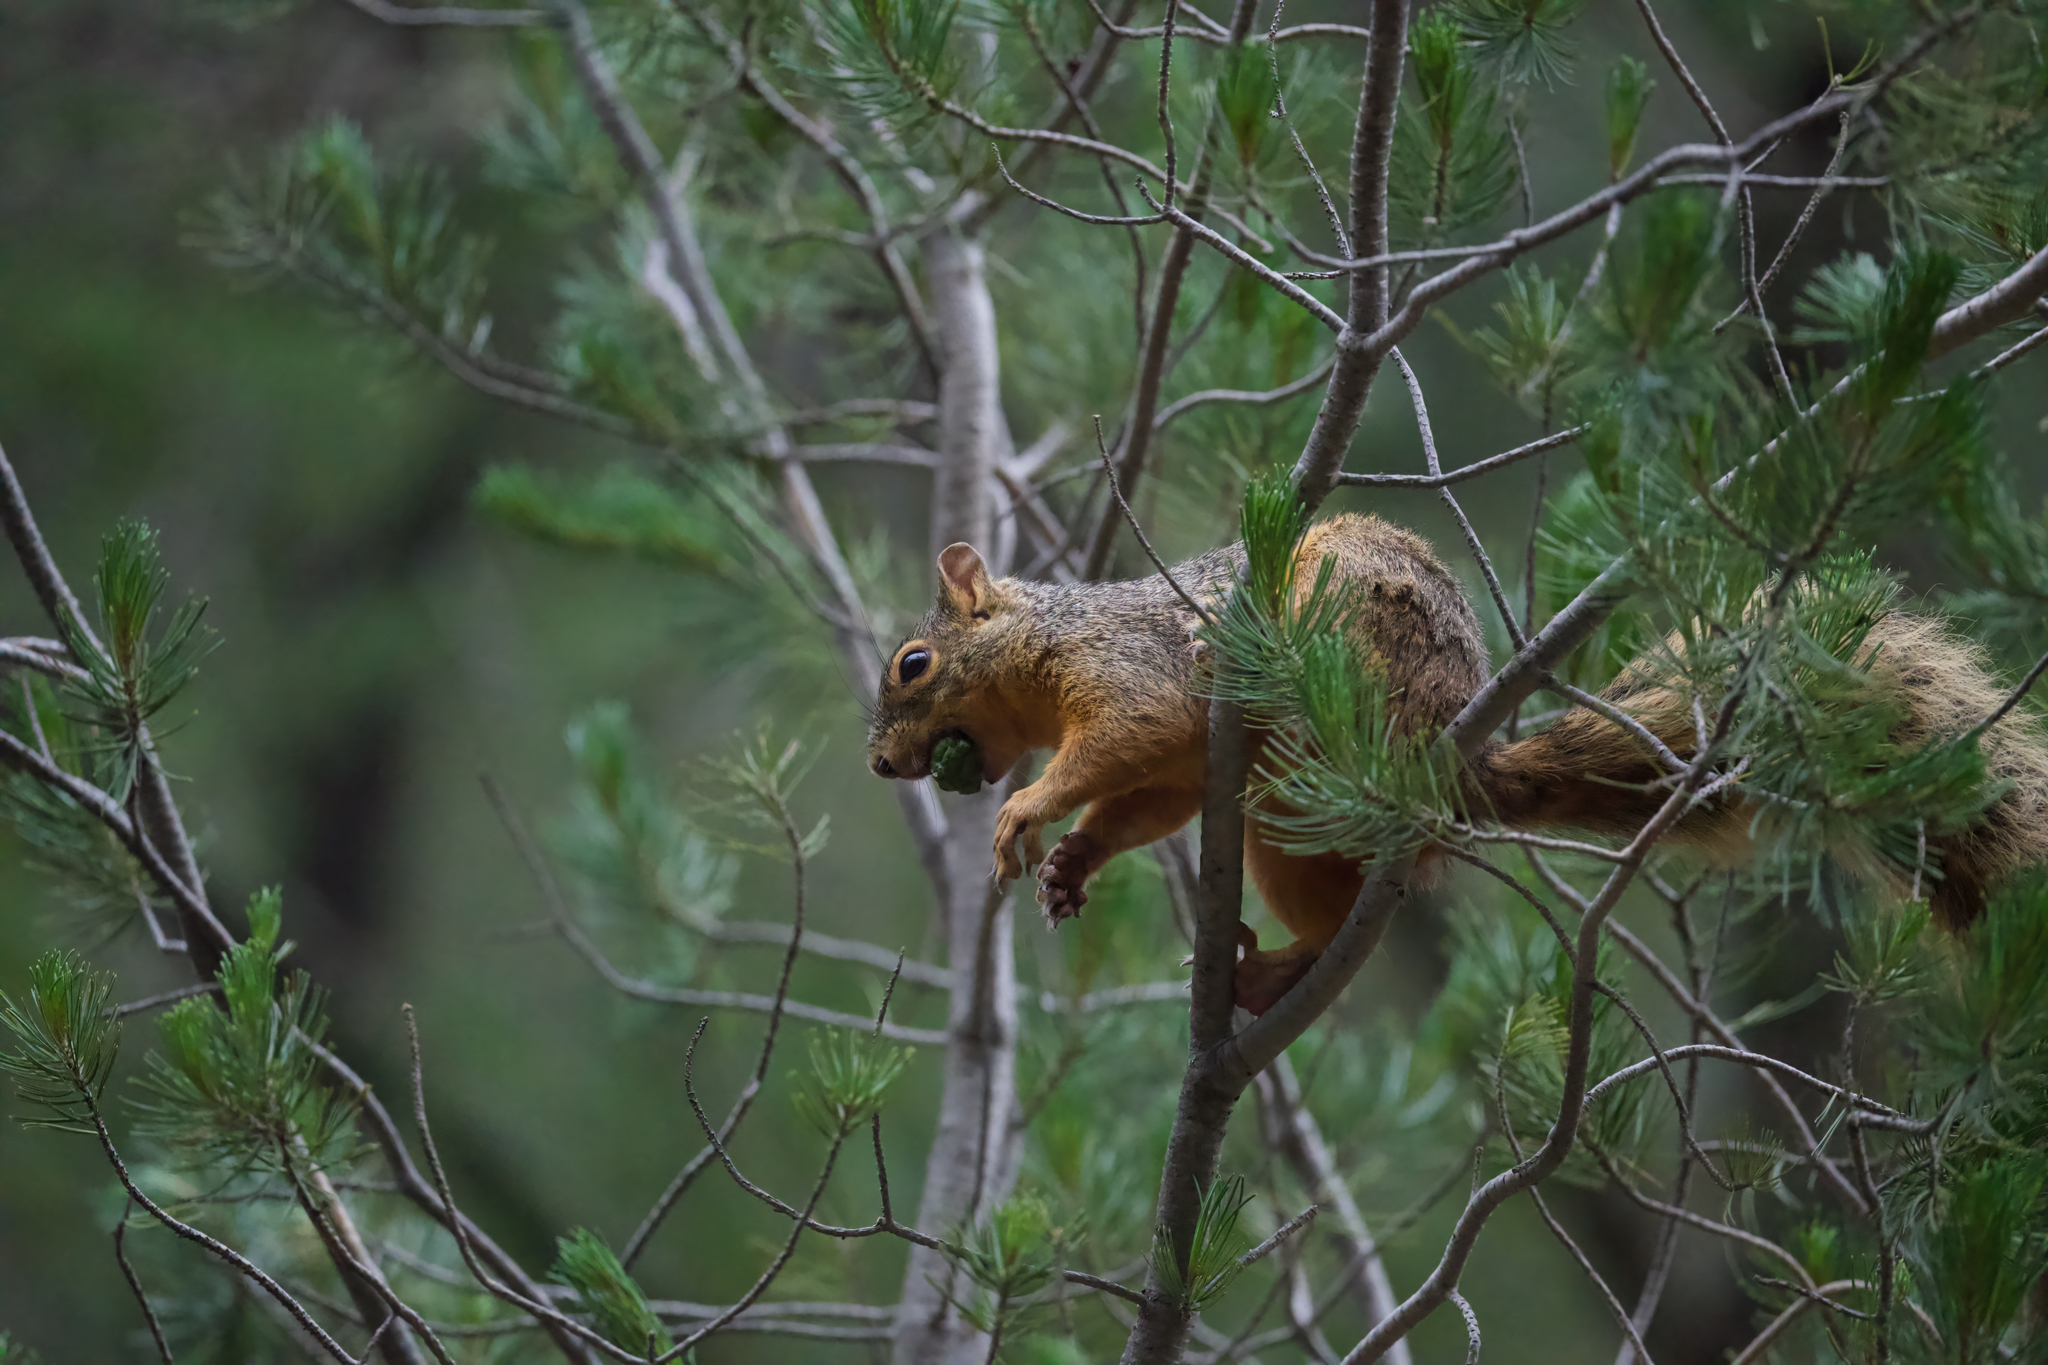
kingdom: Animalia
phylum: Chordata
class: Mammalia
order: Rodentia
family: Sciuridae
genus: Sciurus
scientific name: Sciurus nayaritensis
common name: Mexican fox squirrel
